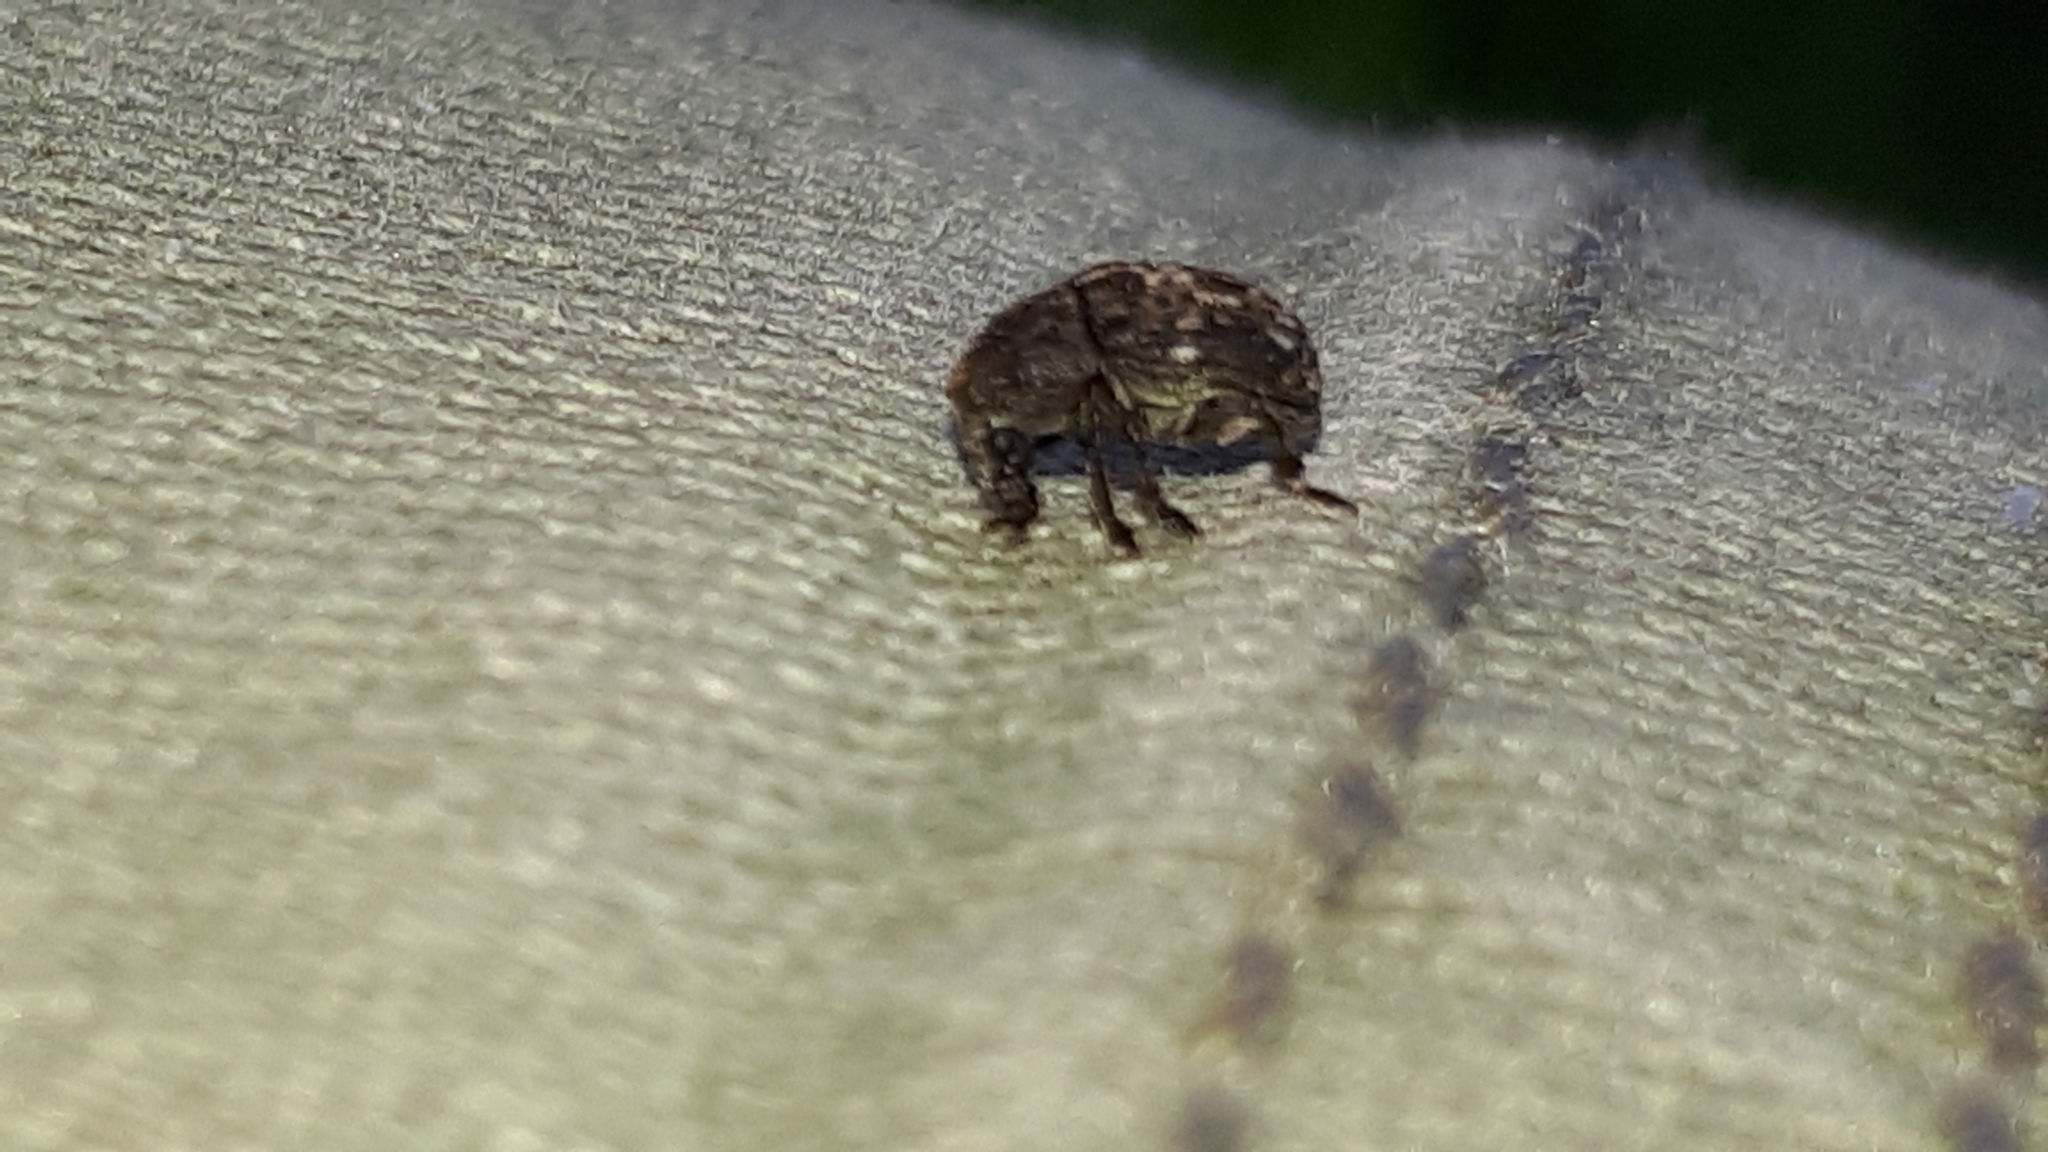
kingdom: Animalia
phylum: Arthropoda
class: Insecta
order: Coleoptera
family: Anthribidae
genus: Anthribus
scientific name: Anthribus nebulosus
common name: Fungus weevil
